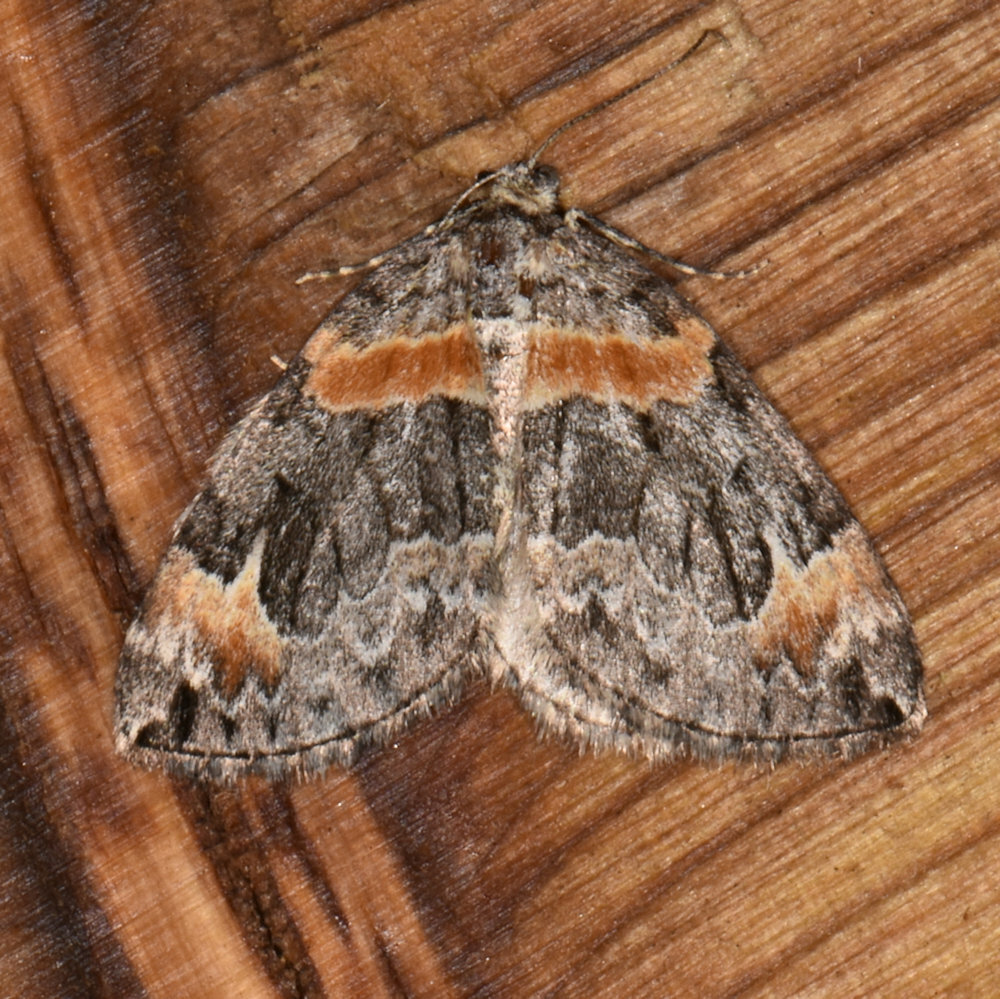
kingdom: Animalia
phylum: Arthropoda
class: Insecta
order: Lepidoptera
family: Geometridae
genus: Dysstroma
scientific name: Dysstroma hersiliata
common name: Orange-barred carpet
